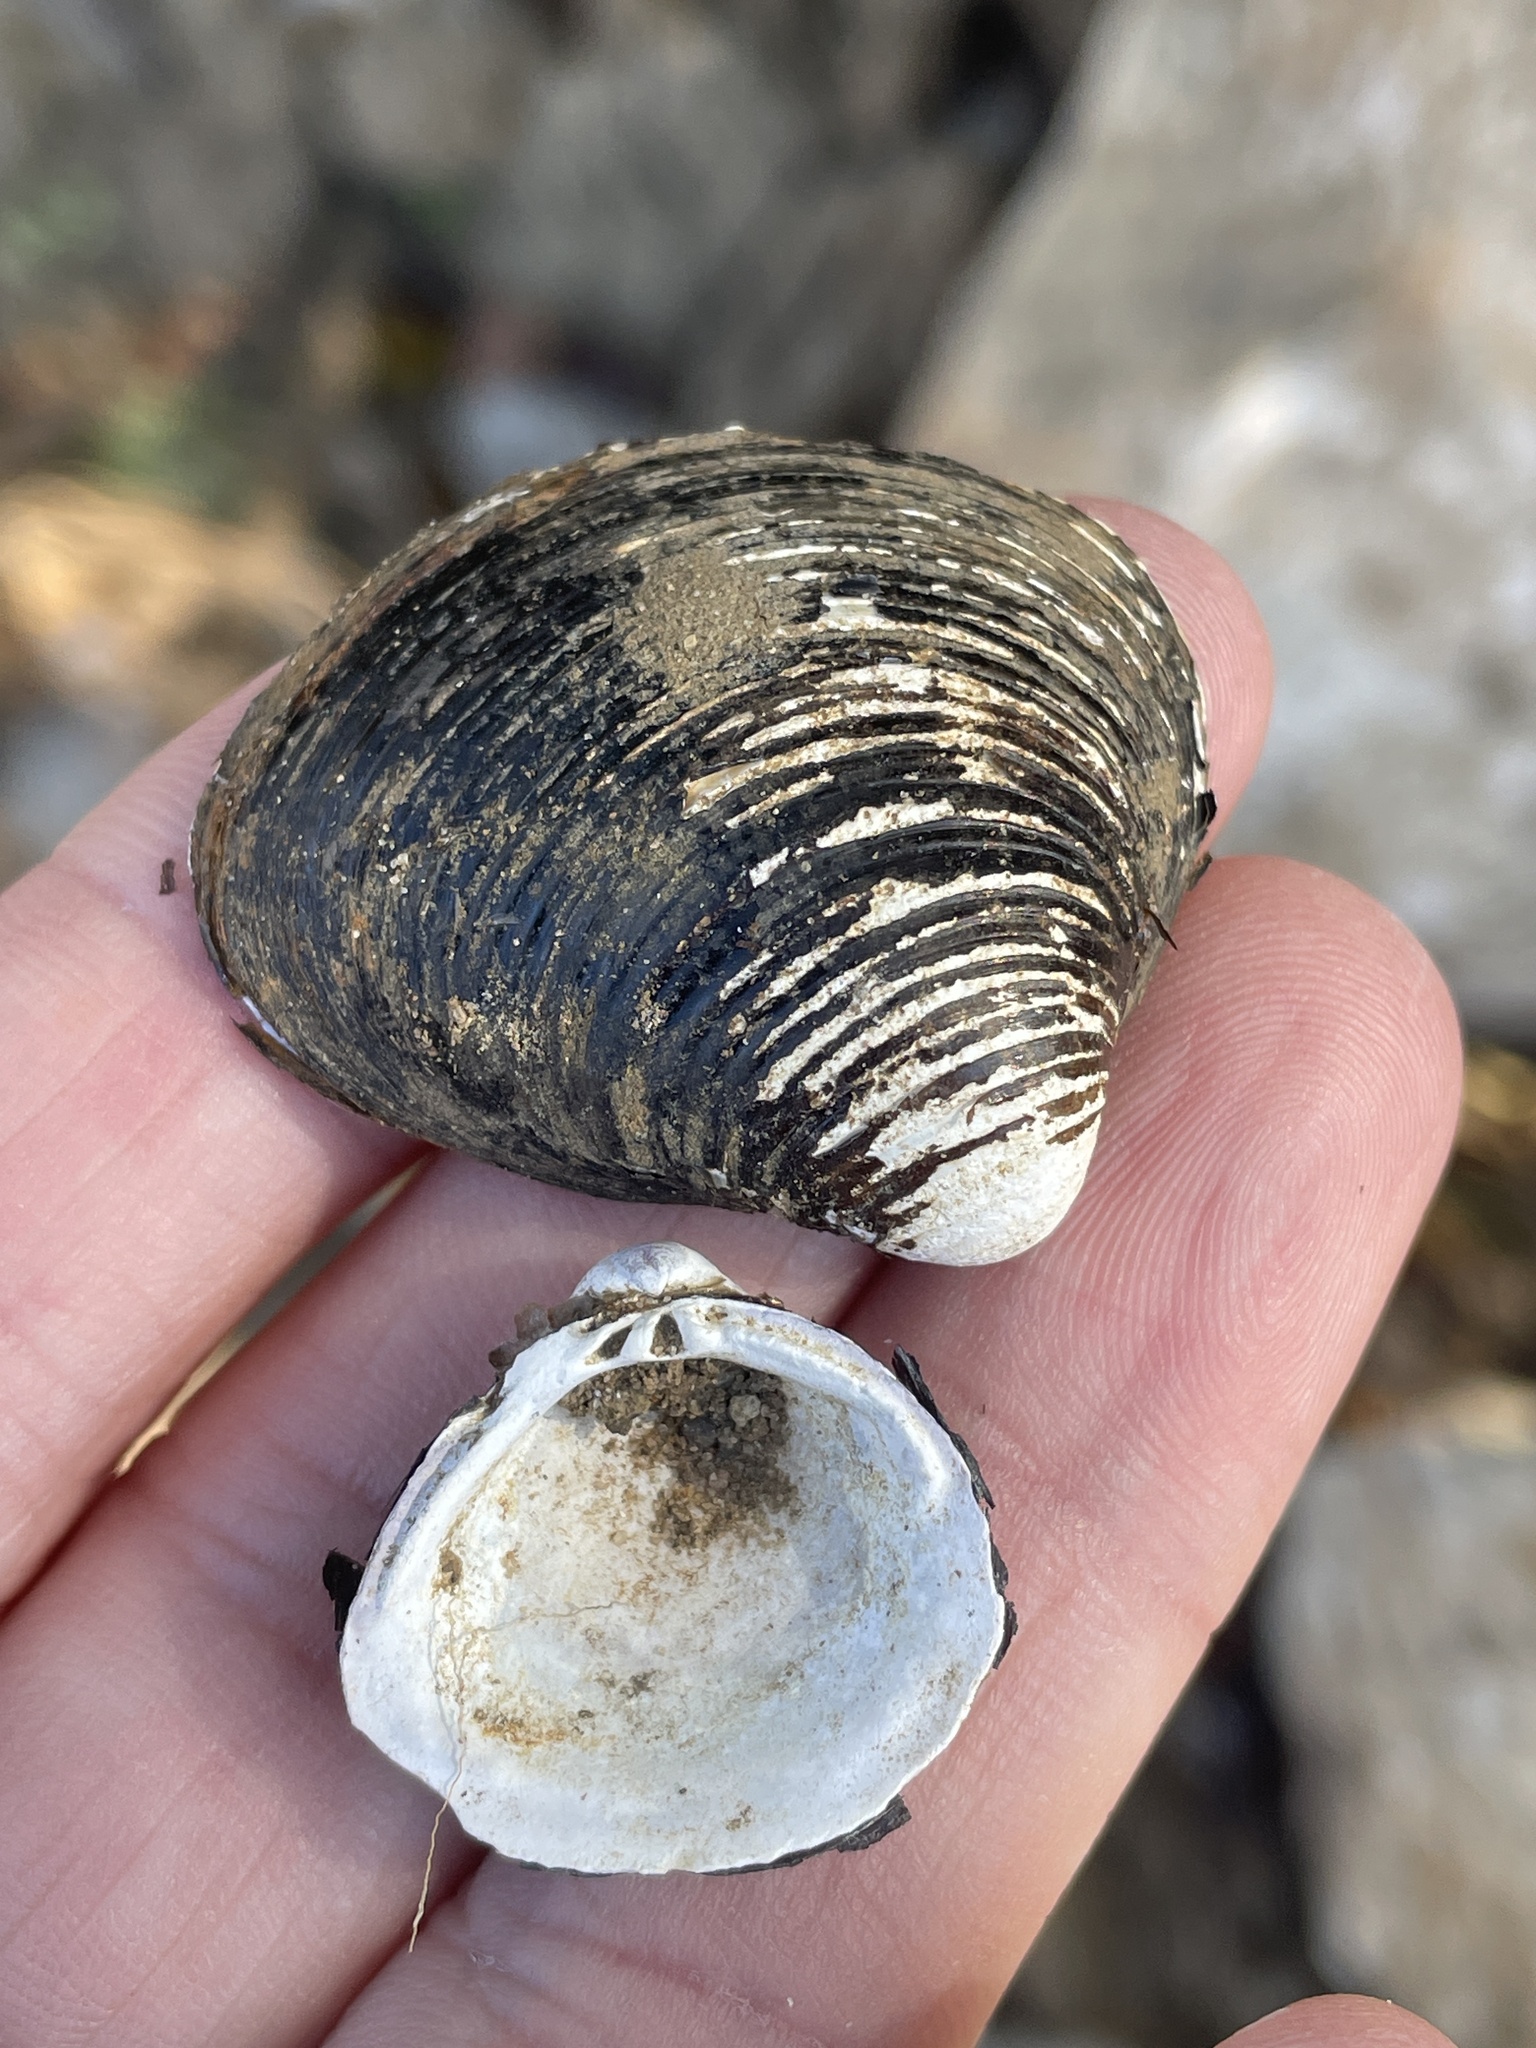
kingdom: Animalia
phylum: Mollusca
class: Bivalvia
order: Venerida
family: Cyrenidae
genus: Corbicula
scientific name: Corbicula fluminea
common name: Asian clam
